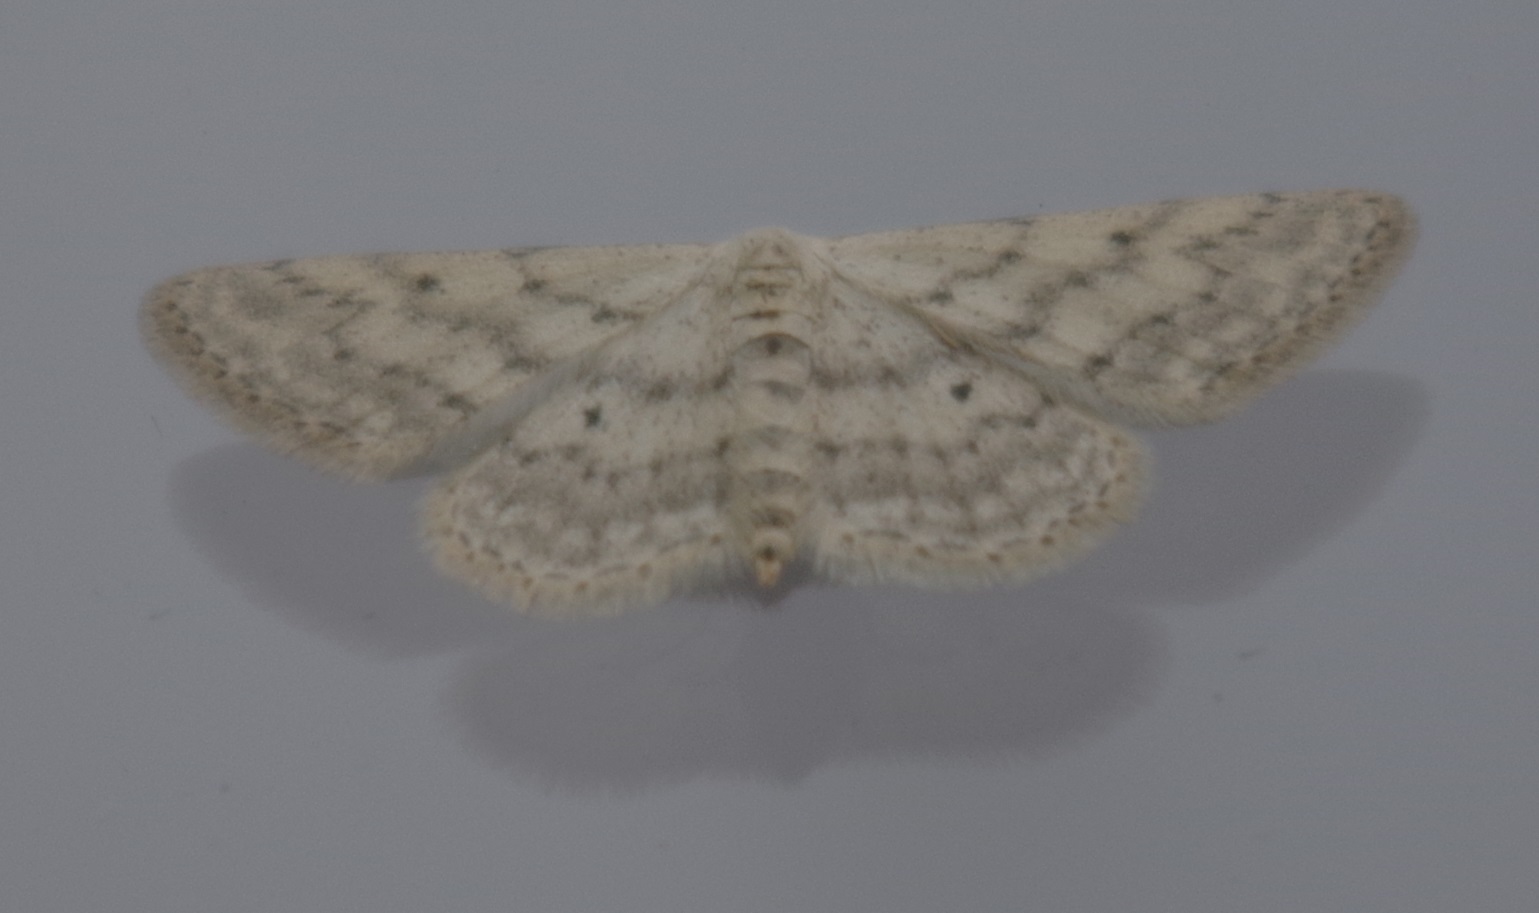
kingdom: Animalia
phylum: Arthropoda
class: Insecta
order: Lepidoptera
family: Geometridae
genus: Idaea
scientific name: Idaea seriata
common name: Small dusty wave
